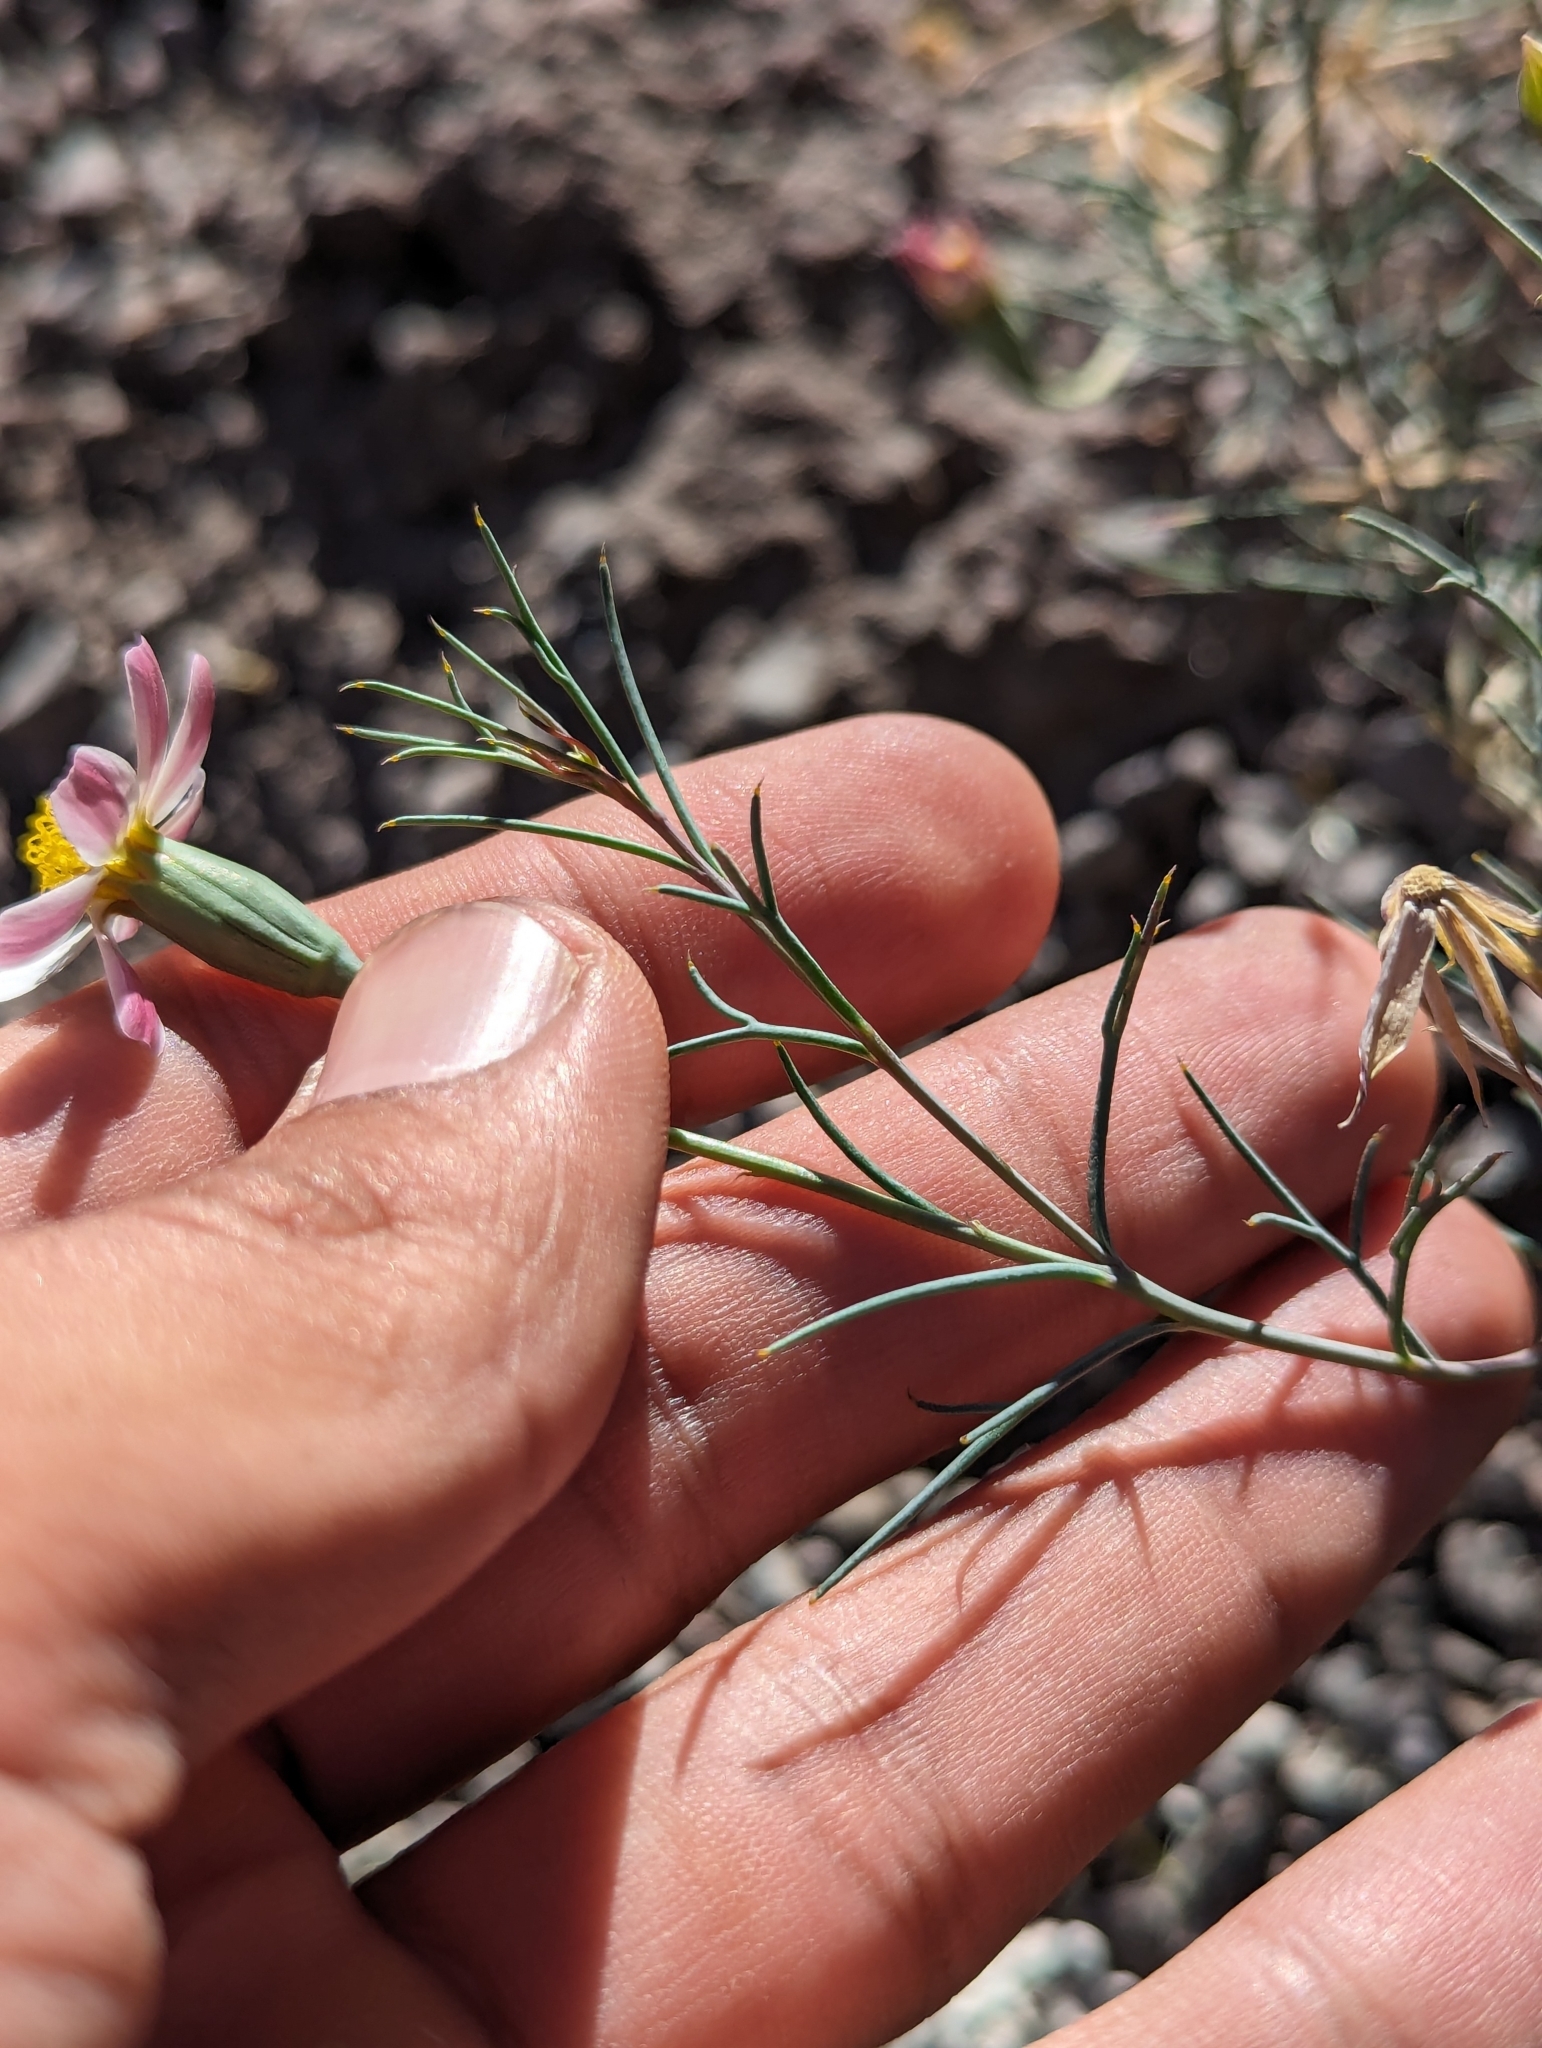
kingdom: Plantae
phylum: Tracheophyta
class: Magnoliopsida
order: Asterales
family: Asteraceae
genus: Nicolletia
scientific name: Nicolletia trifida
